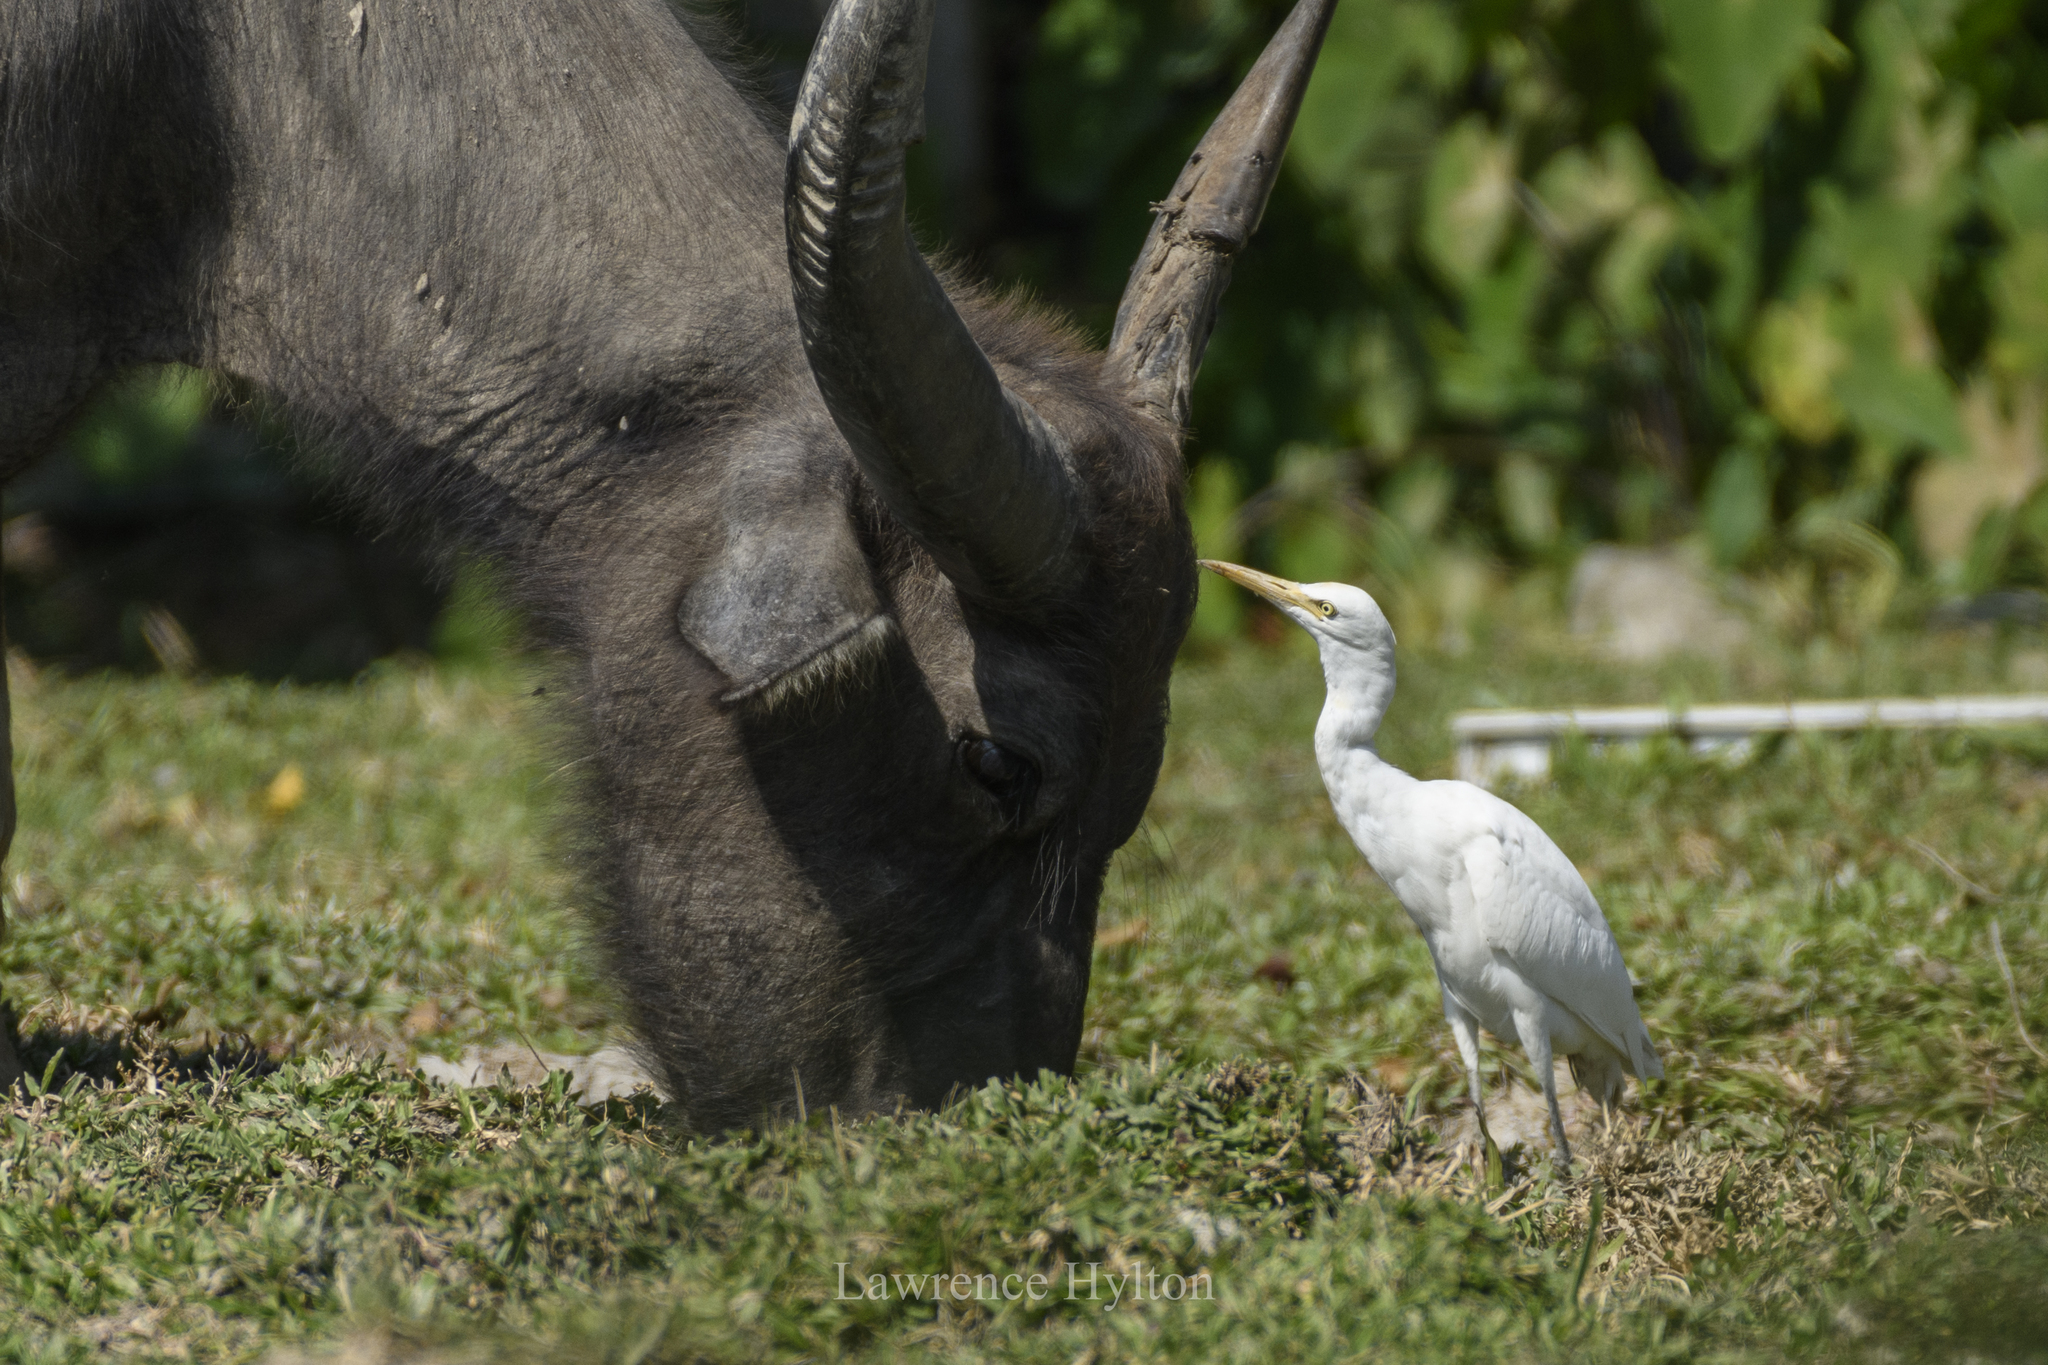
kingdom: Animalia
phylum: Chordata
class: Aves
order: Pelecaniformes
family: Ardeidae
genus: Bubulcus
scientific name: Bubulcus coromandus
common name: Eastern cattle egret
